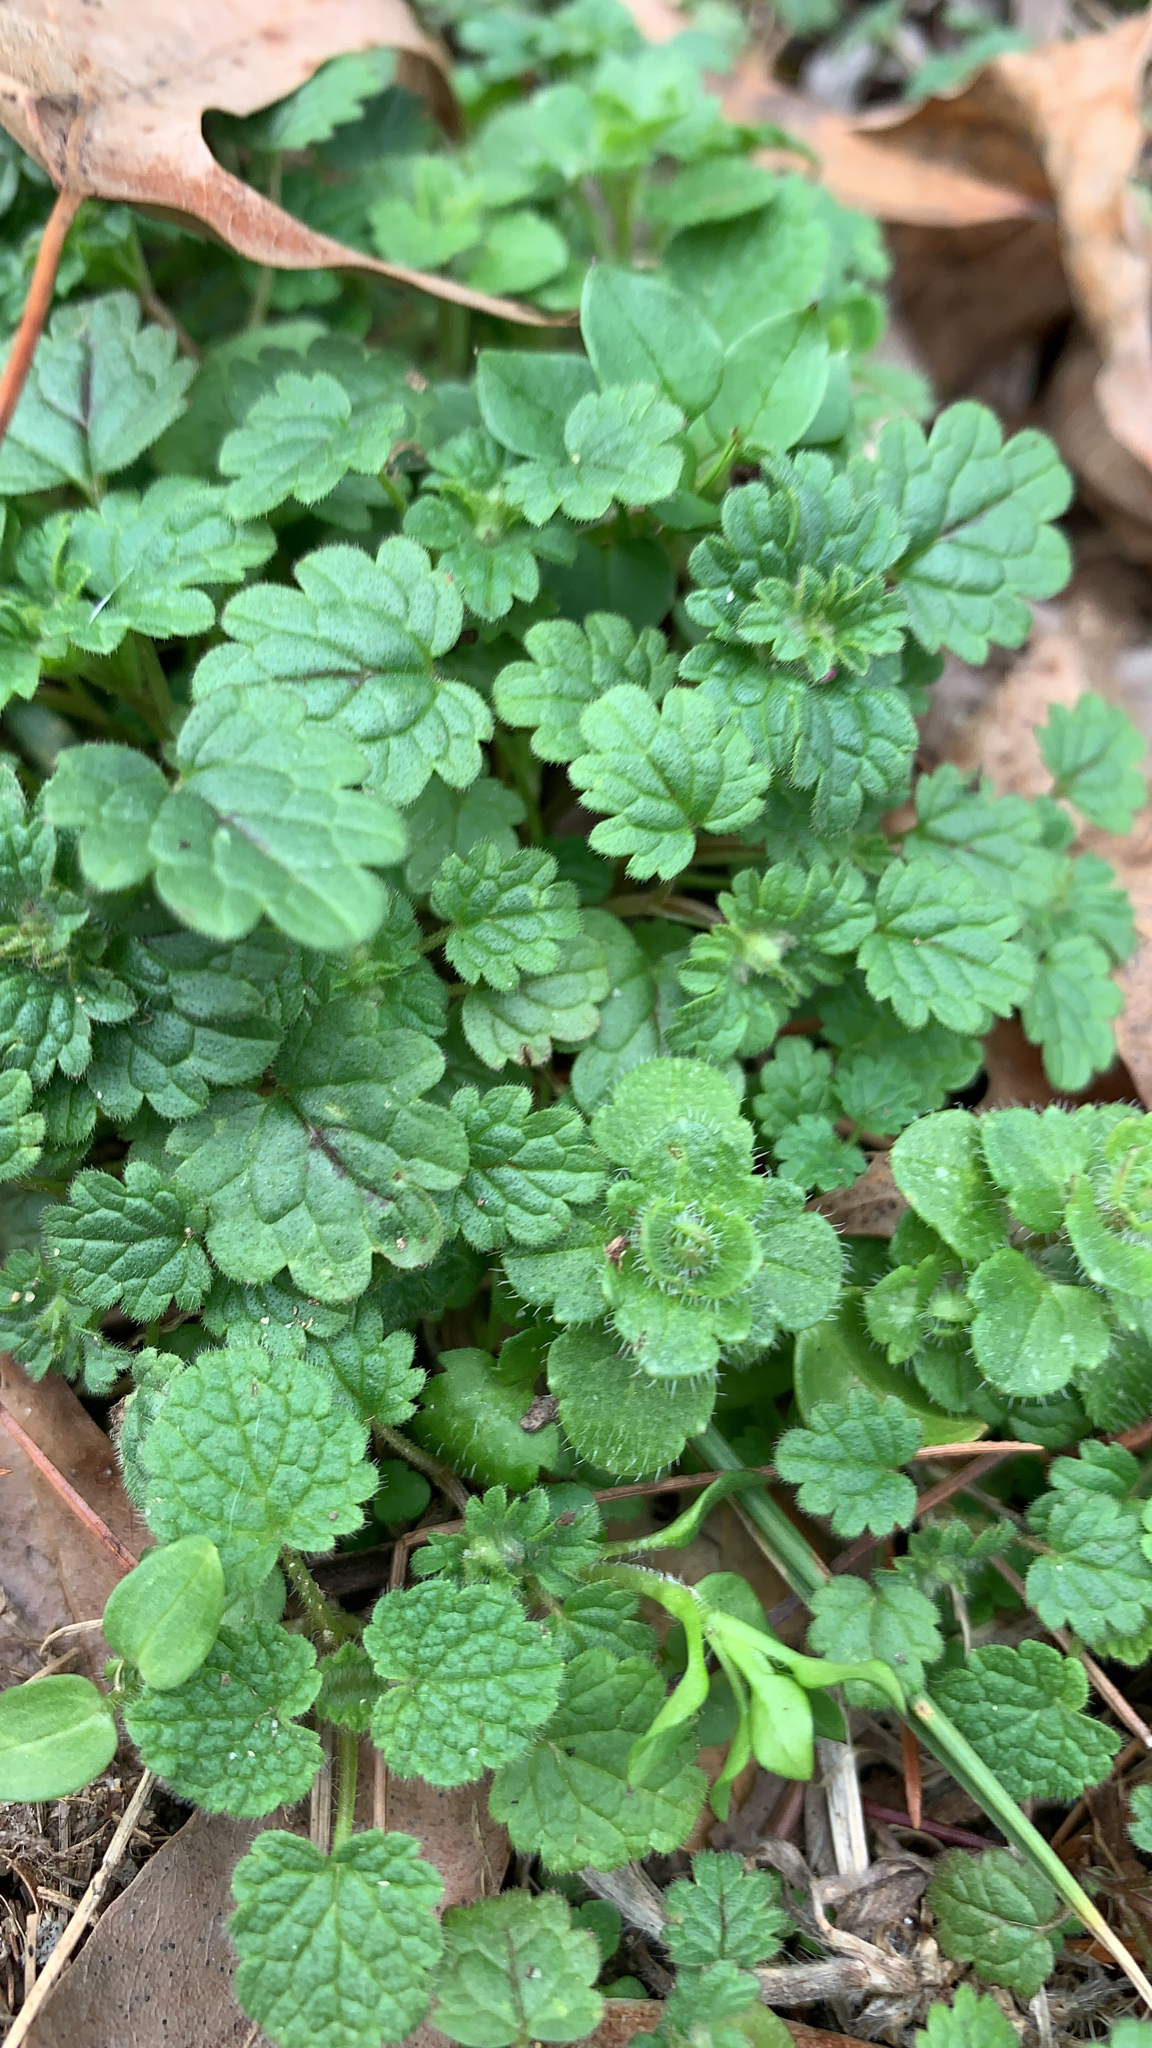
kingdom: Plantae
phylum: Tracheophyta
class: Magnoliopsida
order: Lamiales
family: Lamiaceae
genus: Lamium
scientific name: Lamium amplexicaule
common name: Henbit dead-nettle
